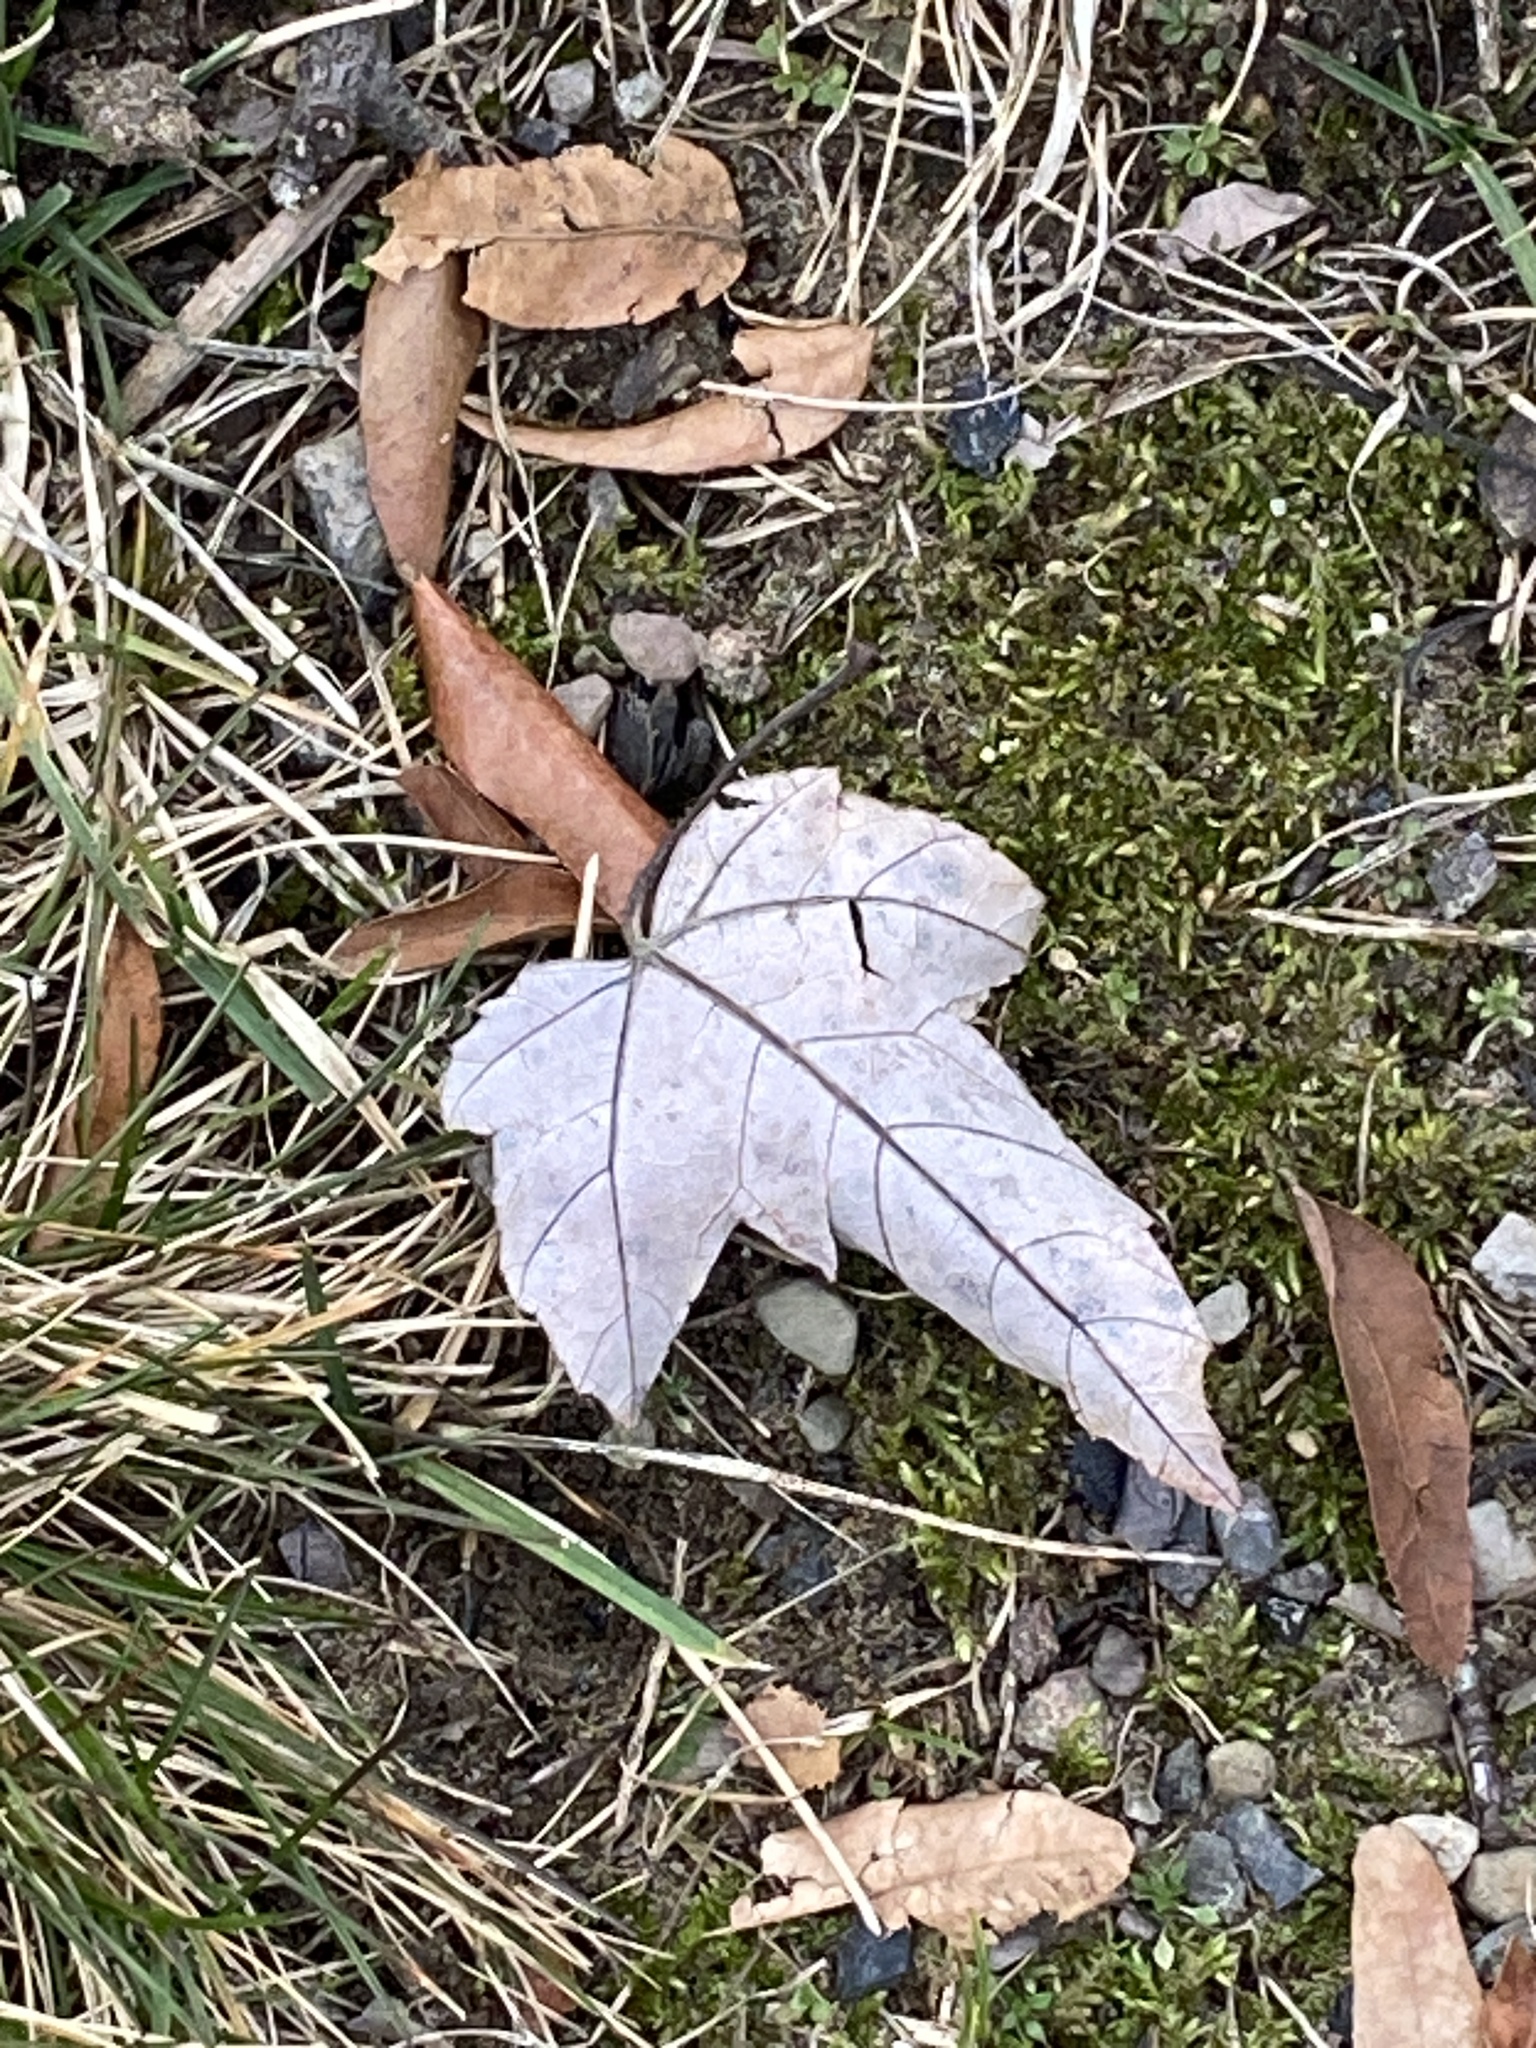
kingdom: Plantae
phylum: Tracheophyta
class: Magnoliopsida
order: Sapindales
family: Sapindaceae
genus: Acer
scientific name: Acer rubrum
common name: Red maple
